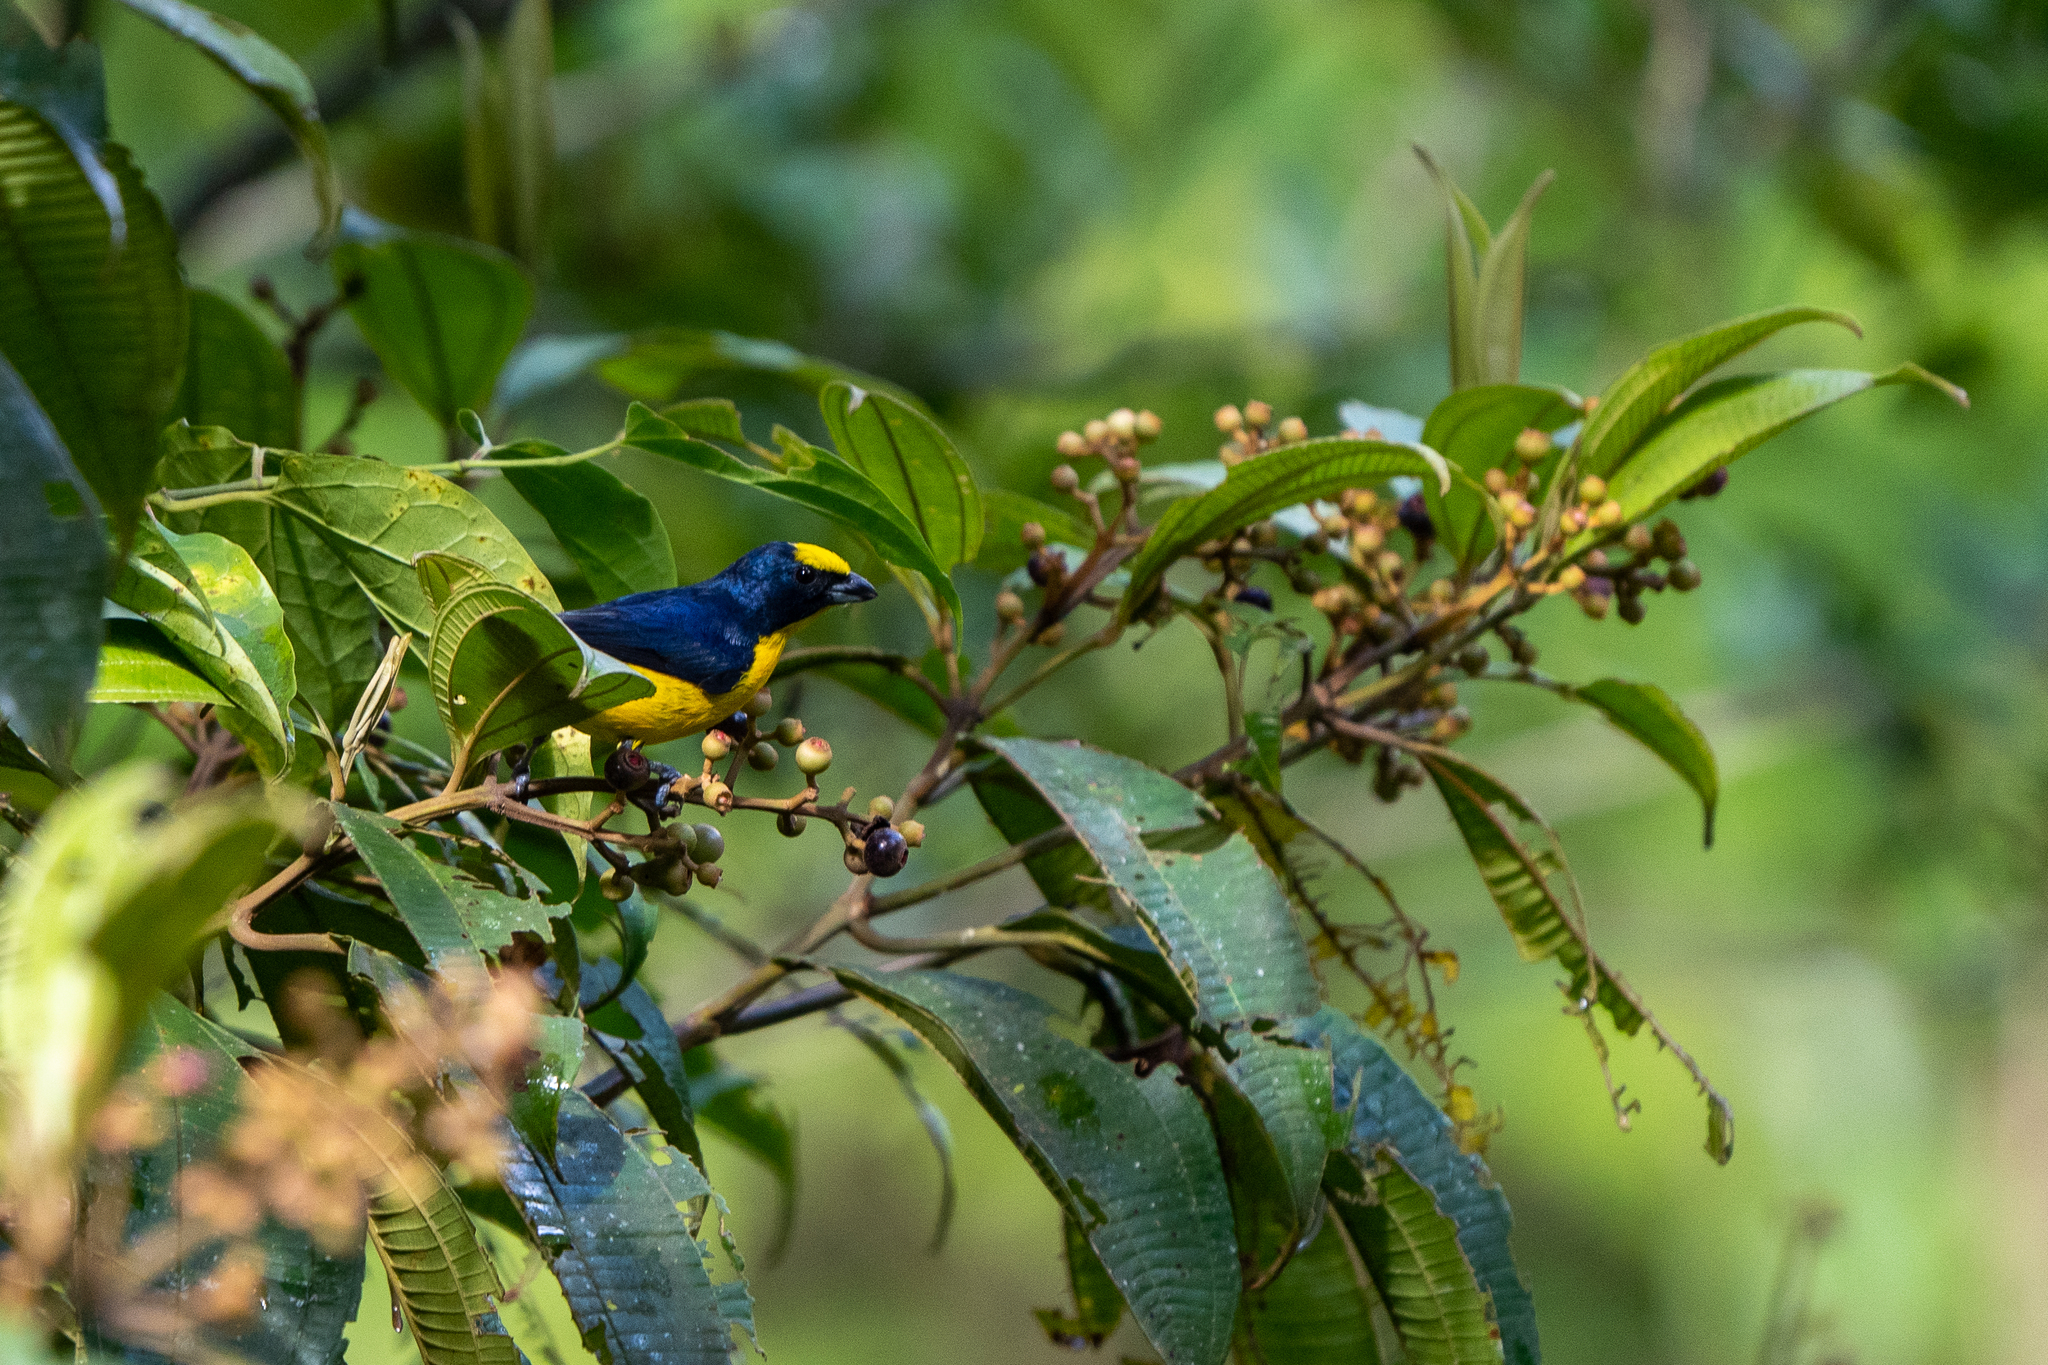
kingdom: Animalia
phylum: Chordata
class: Aves
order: Passeriformes
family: Fringillidae
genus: Euphonia
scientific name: Euphonia laniirostris
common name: Thick-billed euphonia
